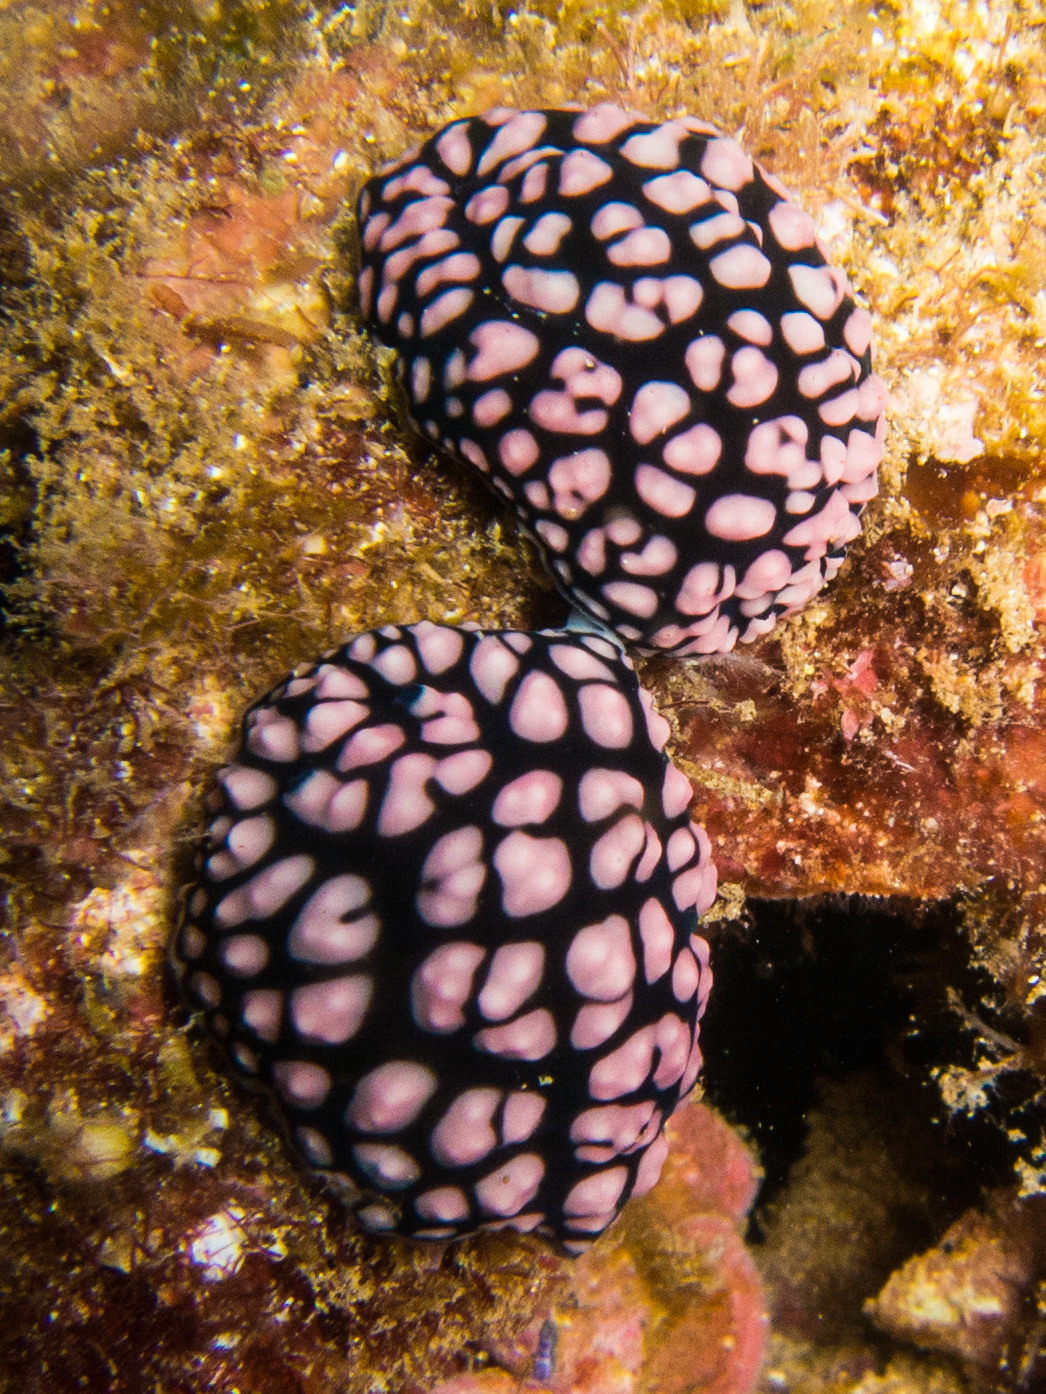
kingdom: Animalia
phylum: Mollusca
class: Gastropoda
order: Nudibranchia
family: Phyllidiidae
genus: Phyllidiella
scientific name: Phyllidiella pustulosa
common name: Pustular phyllidia
